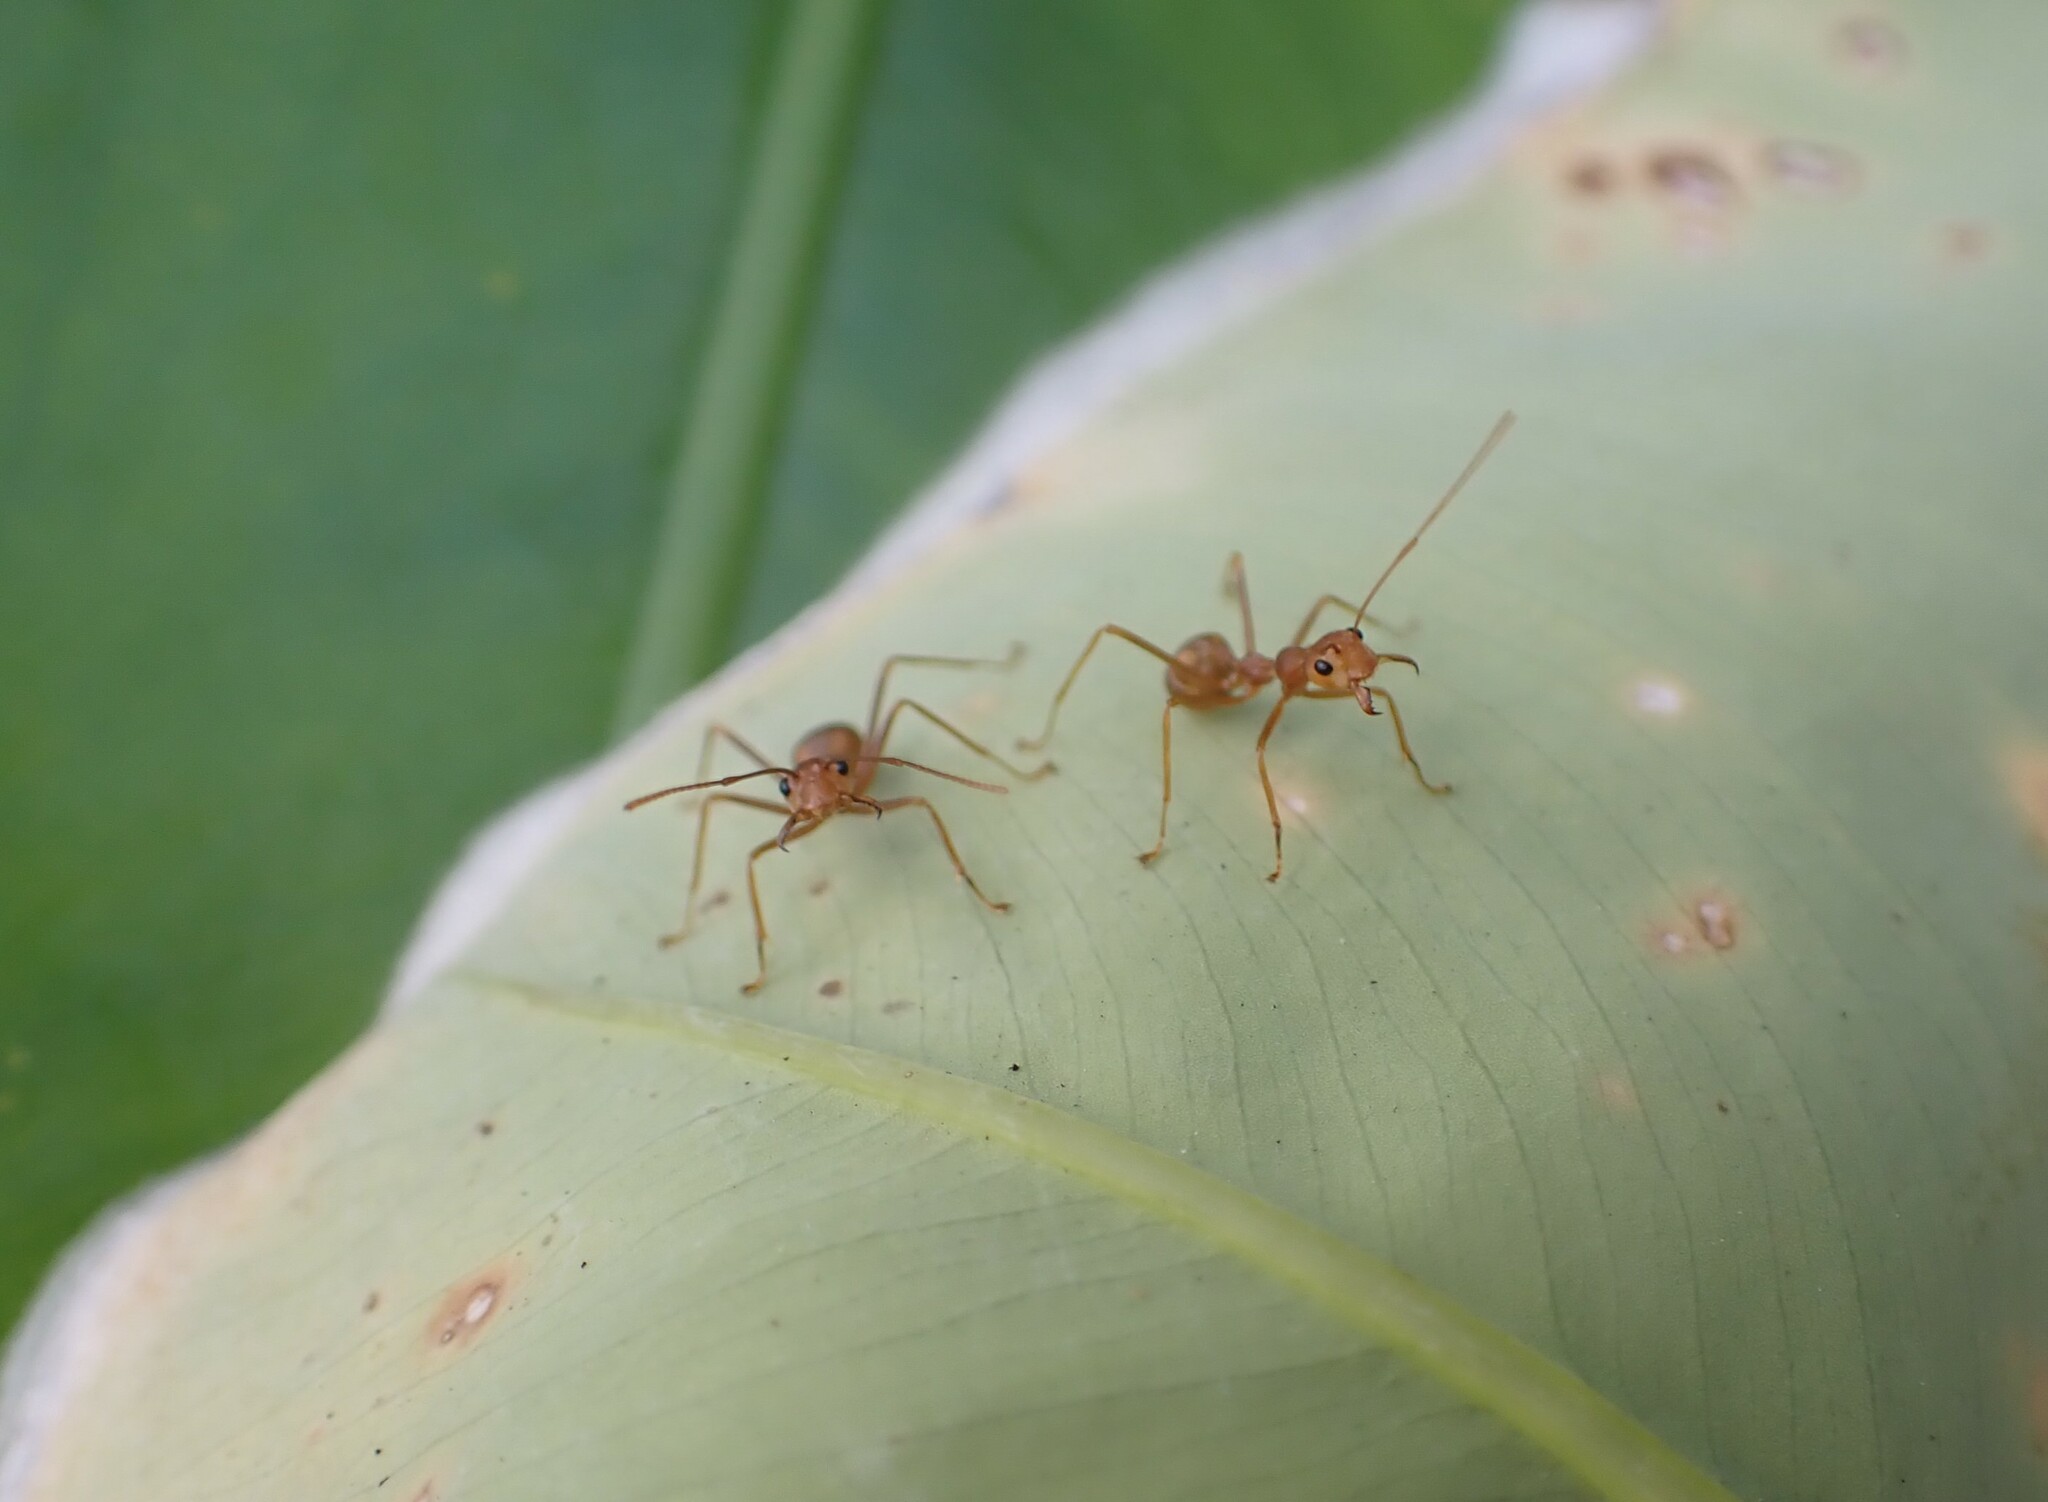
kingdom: Animalia
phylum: Arthropoda
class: Insecta
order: Hymenoptera
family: Formicidae
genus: Oecophylla
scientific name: Oecophylla smaragdina
